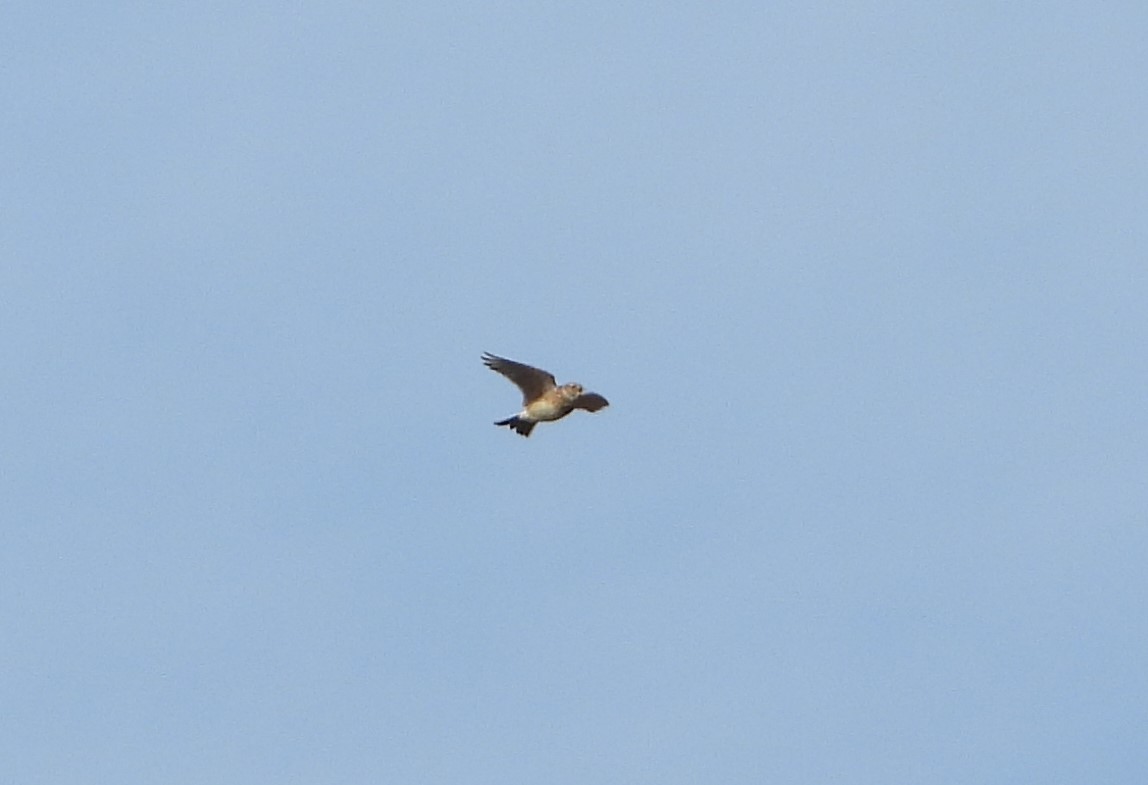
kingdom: Animalia
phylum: Chordata
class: Aves
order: Passeriformes
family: Alaudidae
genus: Alauda
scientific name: Alauda arvensis
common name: Eurasian skylark
